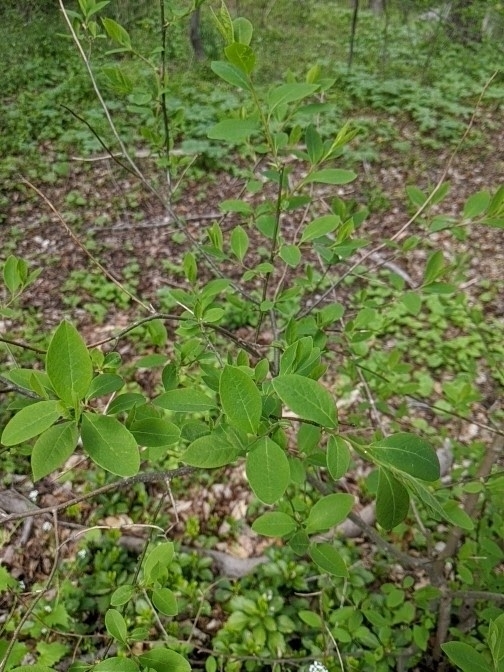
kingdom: Plantae
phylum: Tracheophyta
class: Magnoliopsida
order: Laurales
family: Lauraceae
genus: Lindera
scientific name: Lindera benzoin
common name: Spicebush
